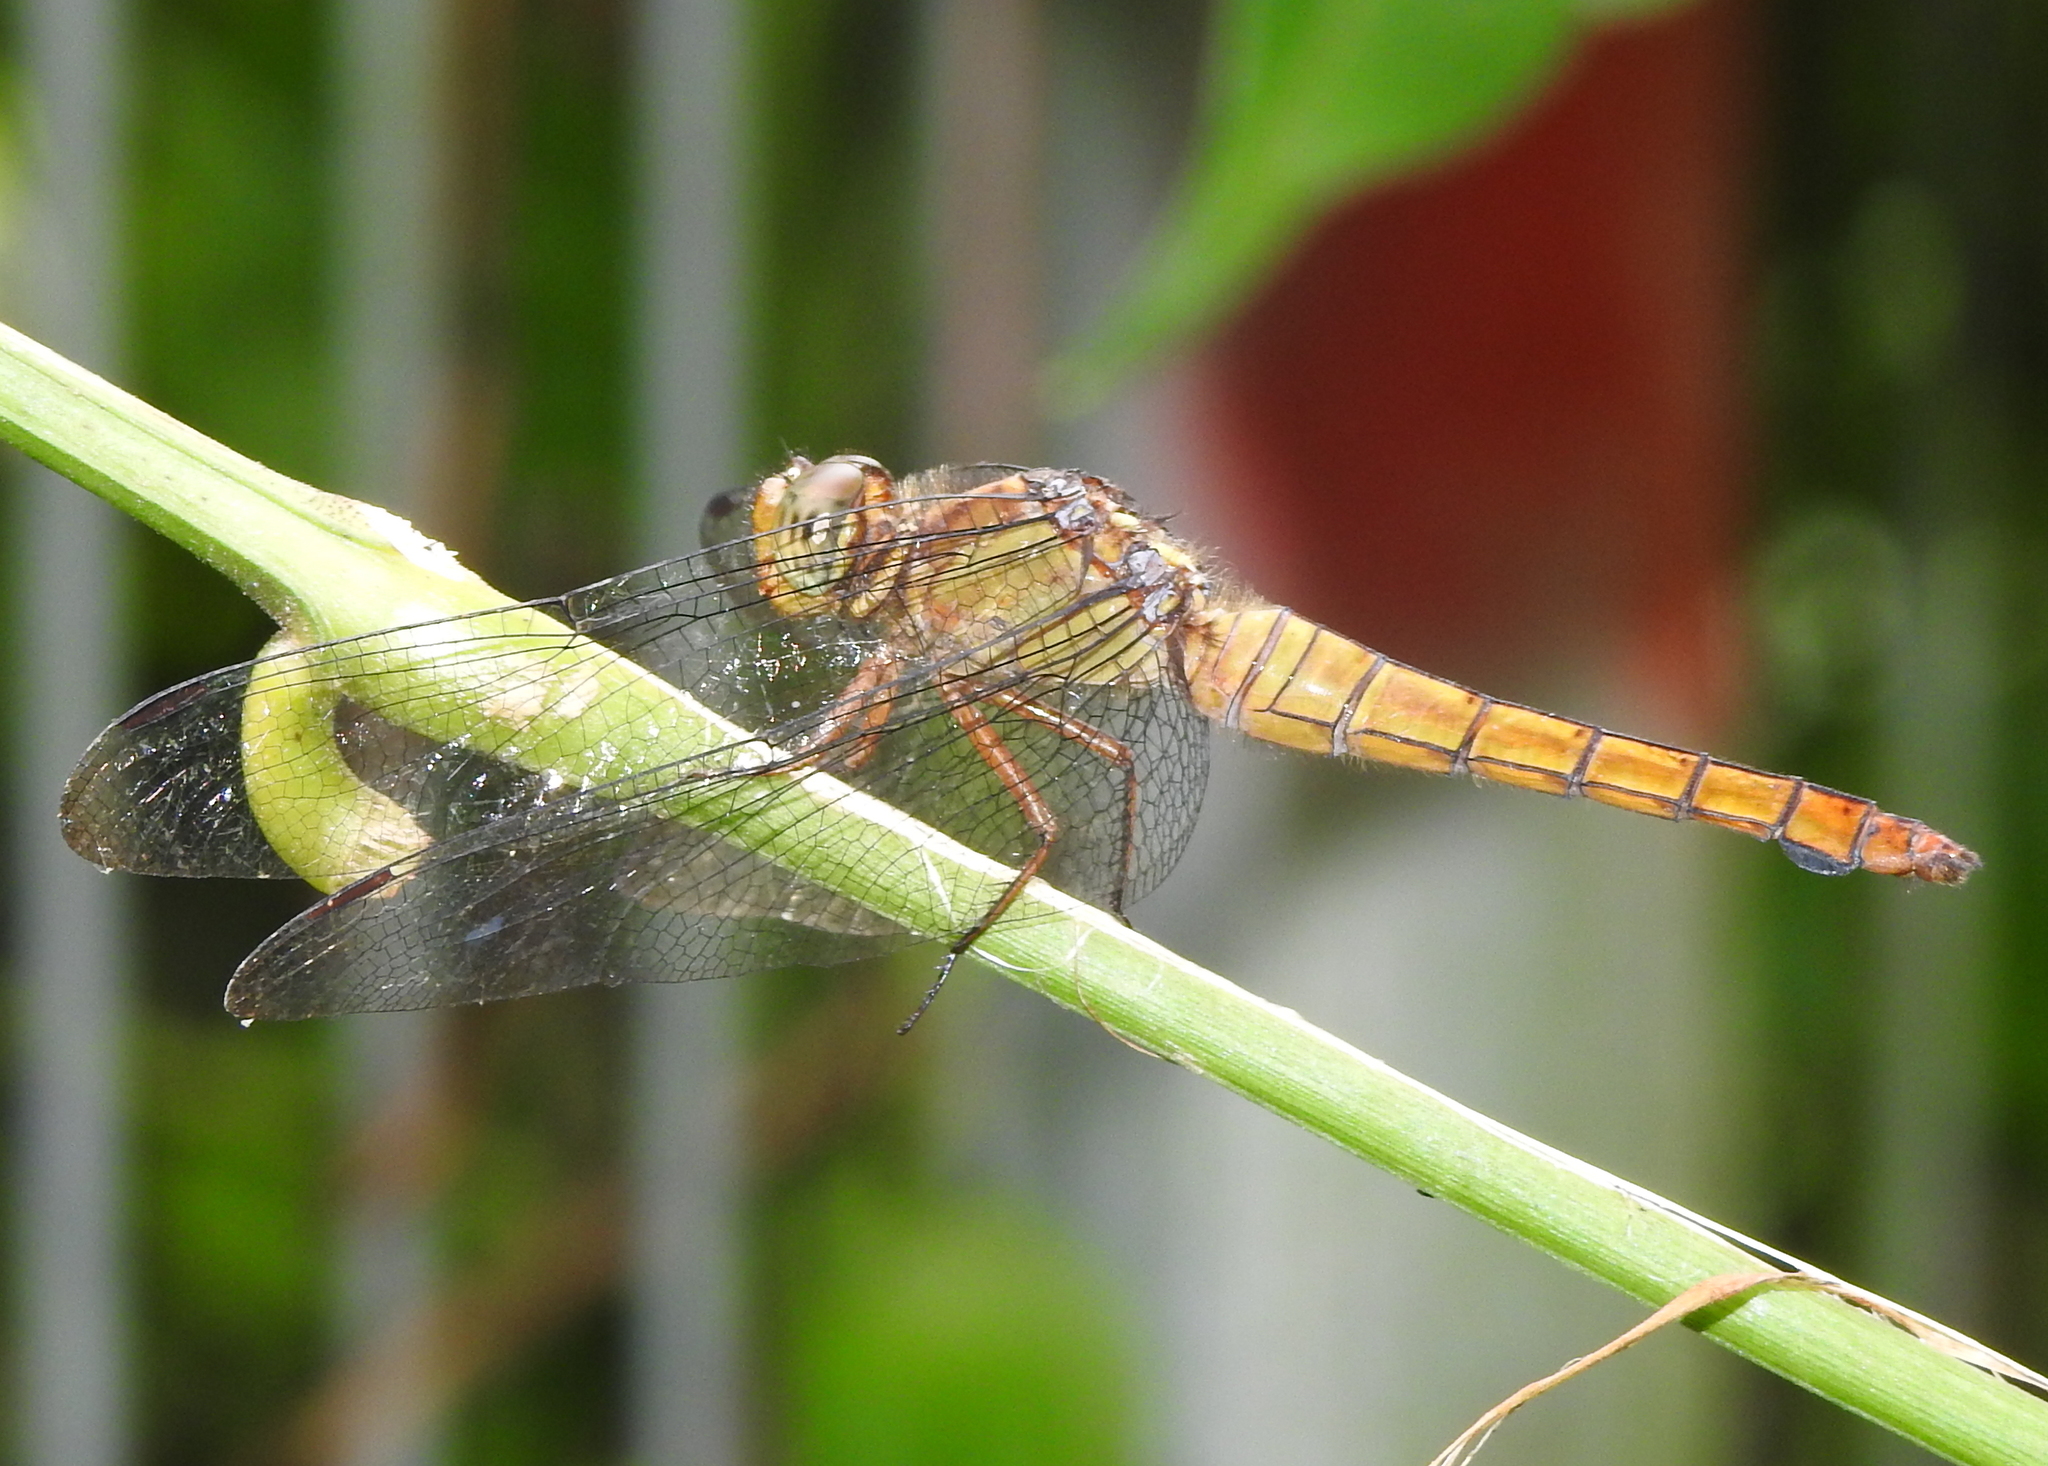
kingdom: Animalia
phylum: Arthropoda
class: Insecta
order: Odonata
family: Libellulidae
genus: Orthetrum
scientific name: Orthetrum testaceum
